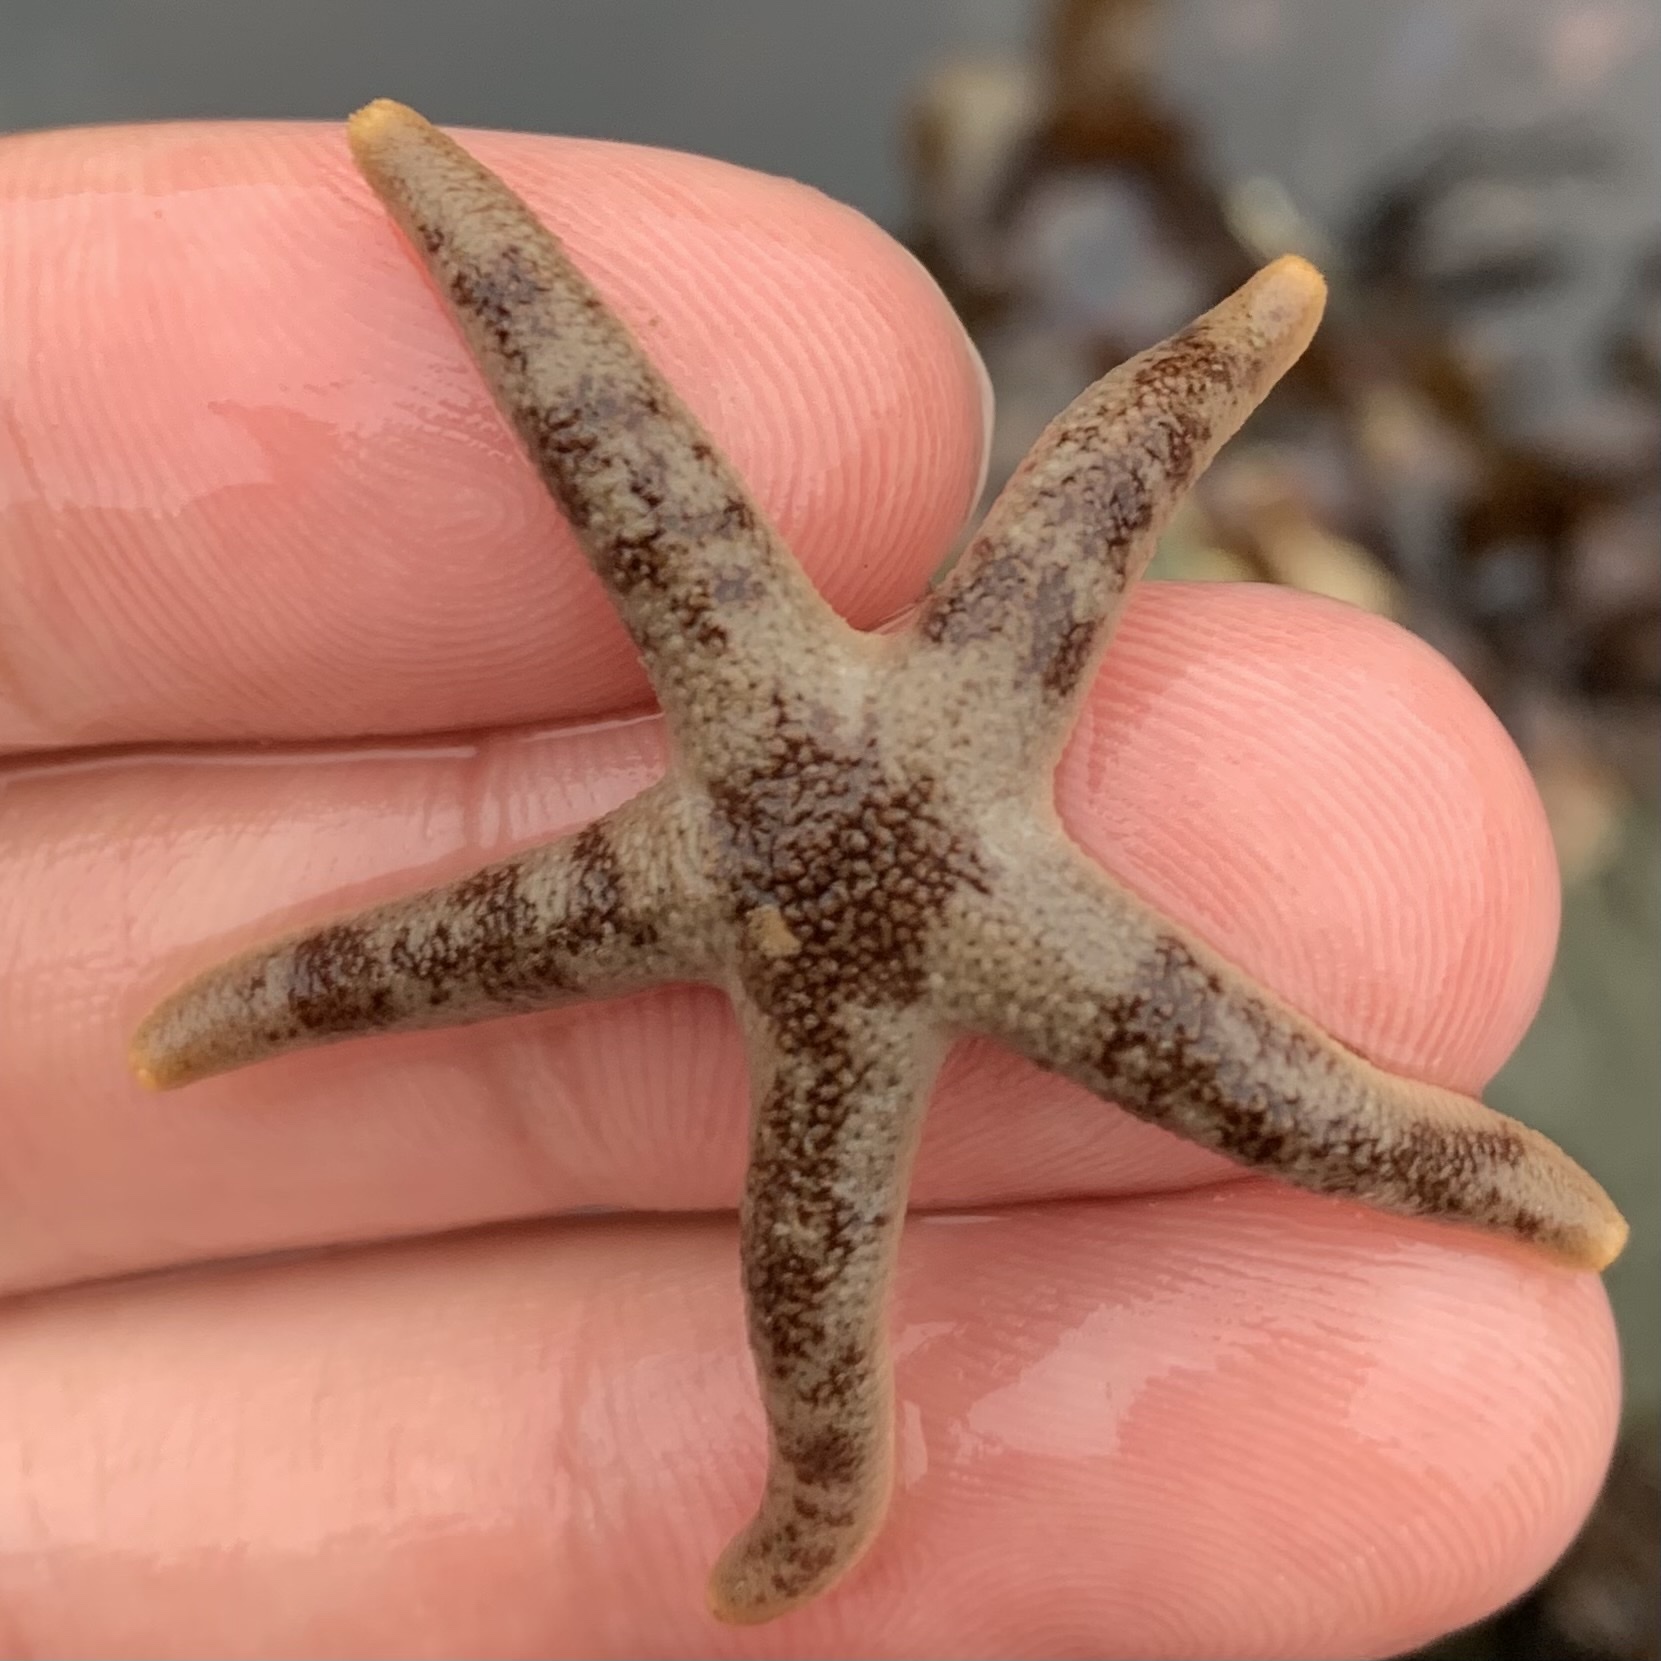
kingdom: Animalia
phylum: Echinodermata
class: Asteroidea
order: Spinulosida
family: Echinasteridae
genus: Henricia
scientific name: Henricia pumila
